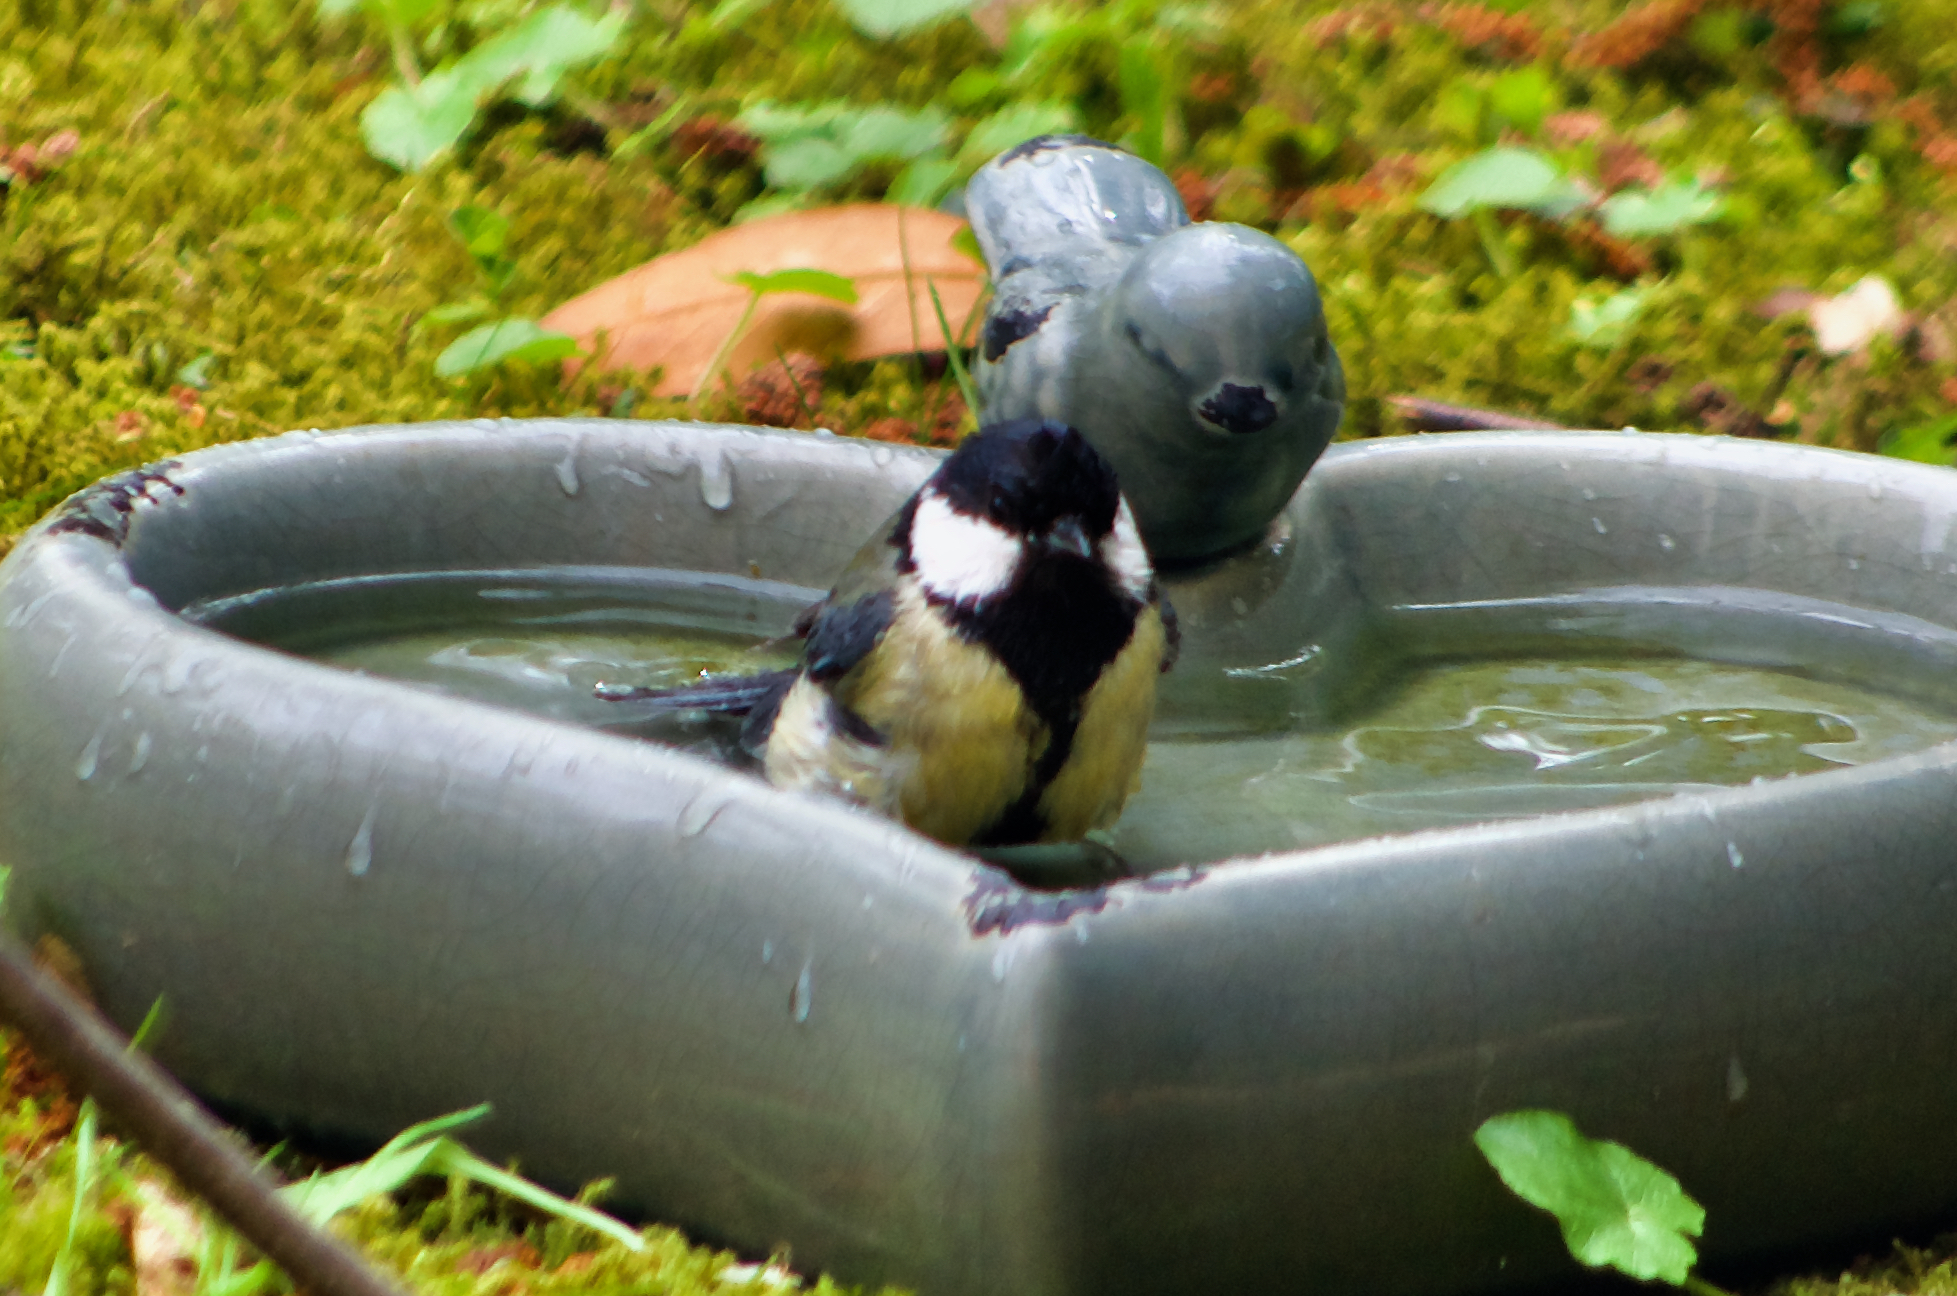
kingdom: Animalia
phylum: Chordata
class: Aves
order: Passeriformes
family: Paridae
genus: Parus
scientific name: Parus major
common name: Great tit
